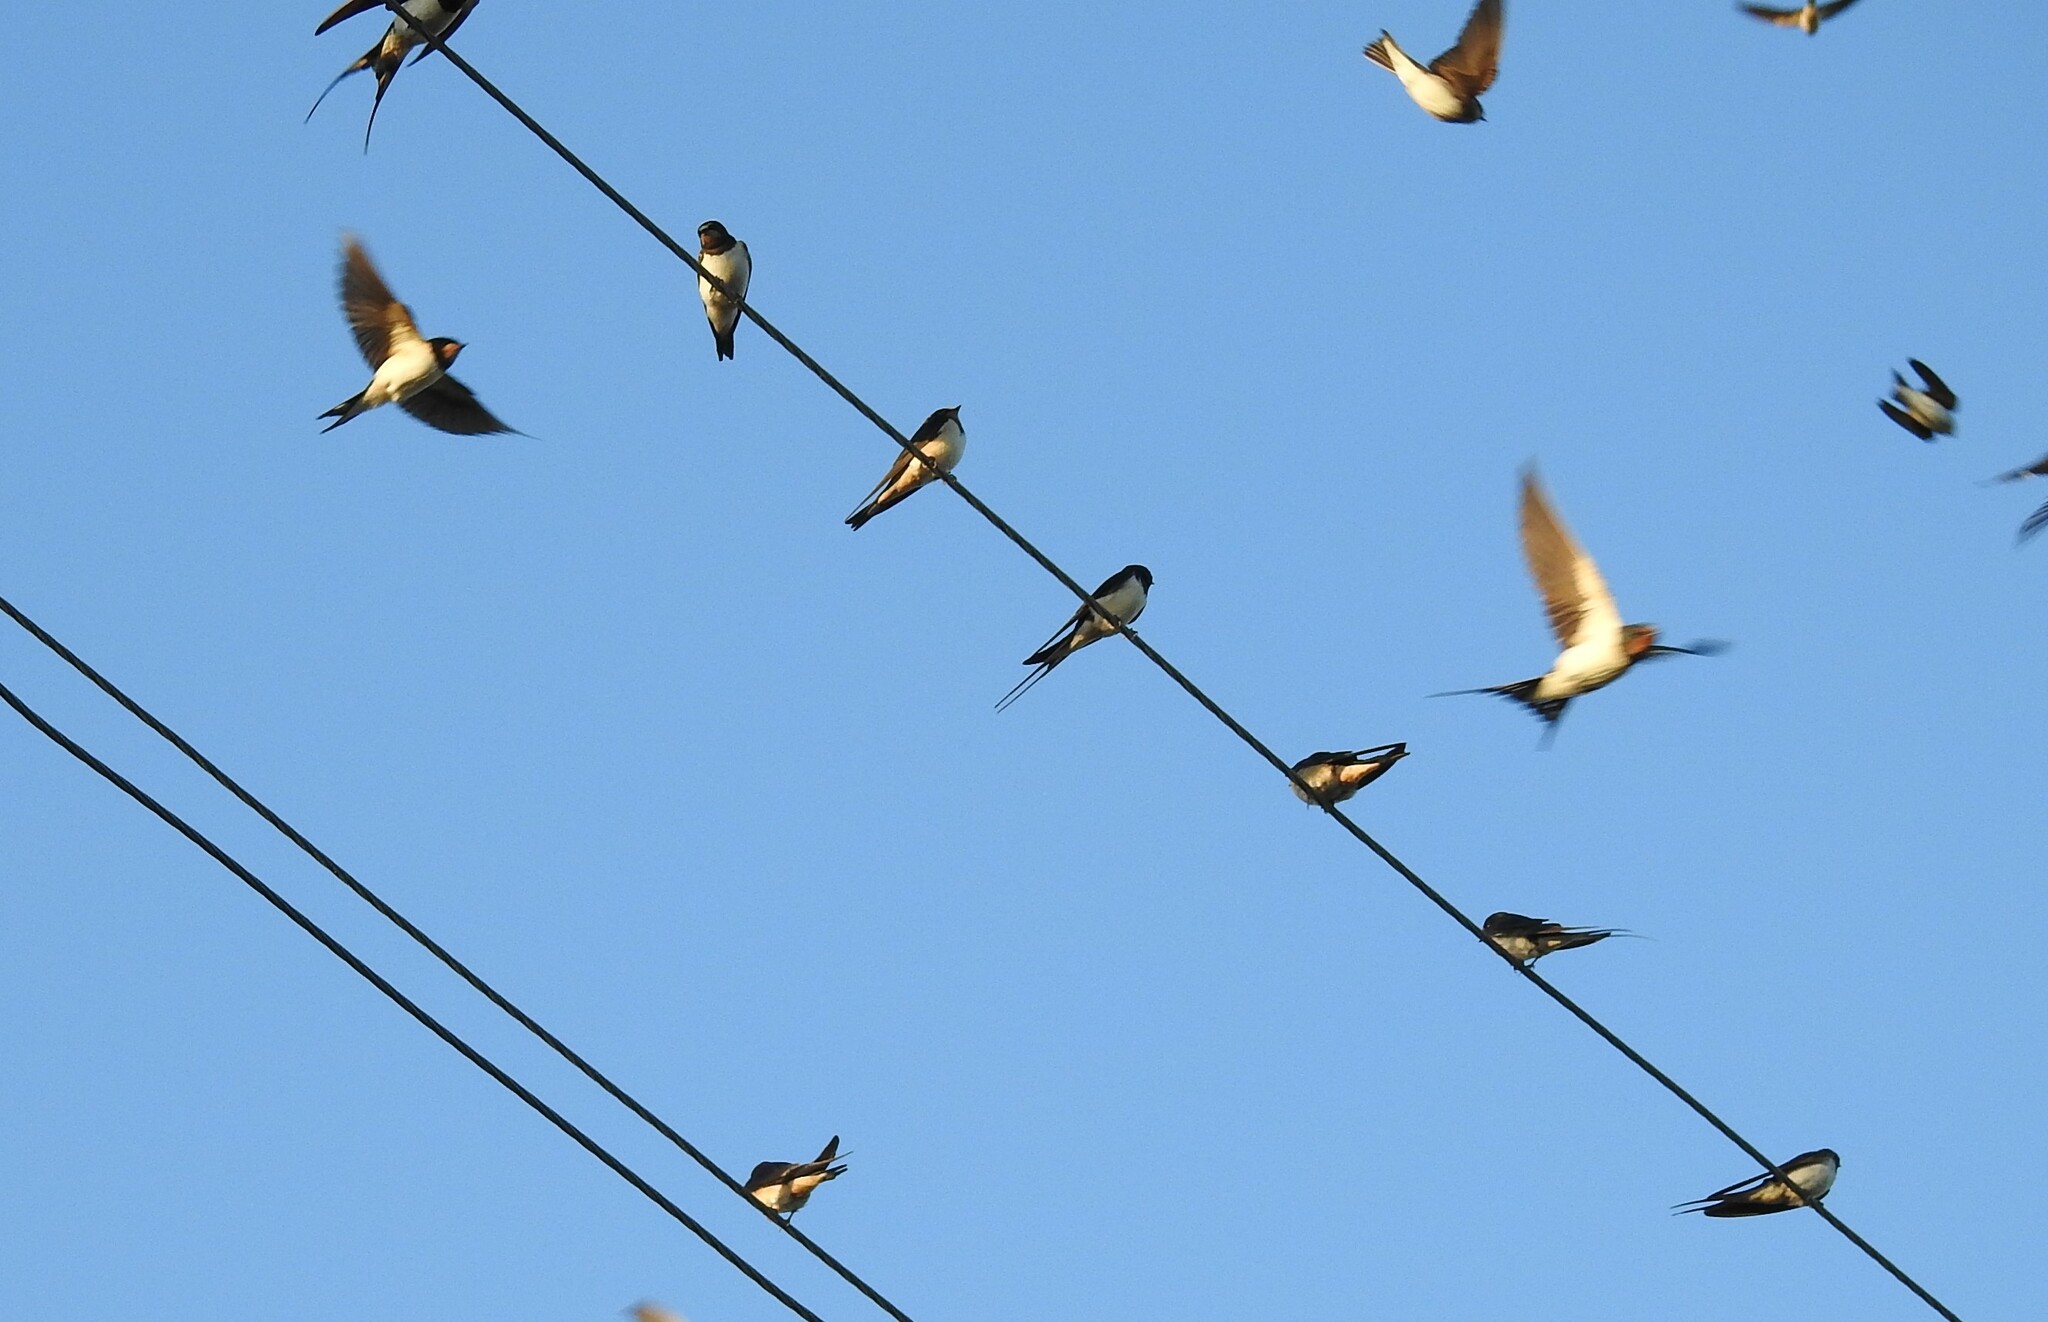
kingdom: Animalia
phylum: Chordata
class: Aves
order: Passeriformes
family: Hirundinidae
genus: Hirundo
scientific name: Hirundo rustica
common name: Barn swallow
